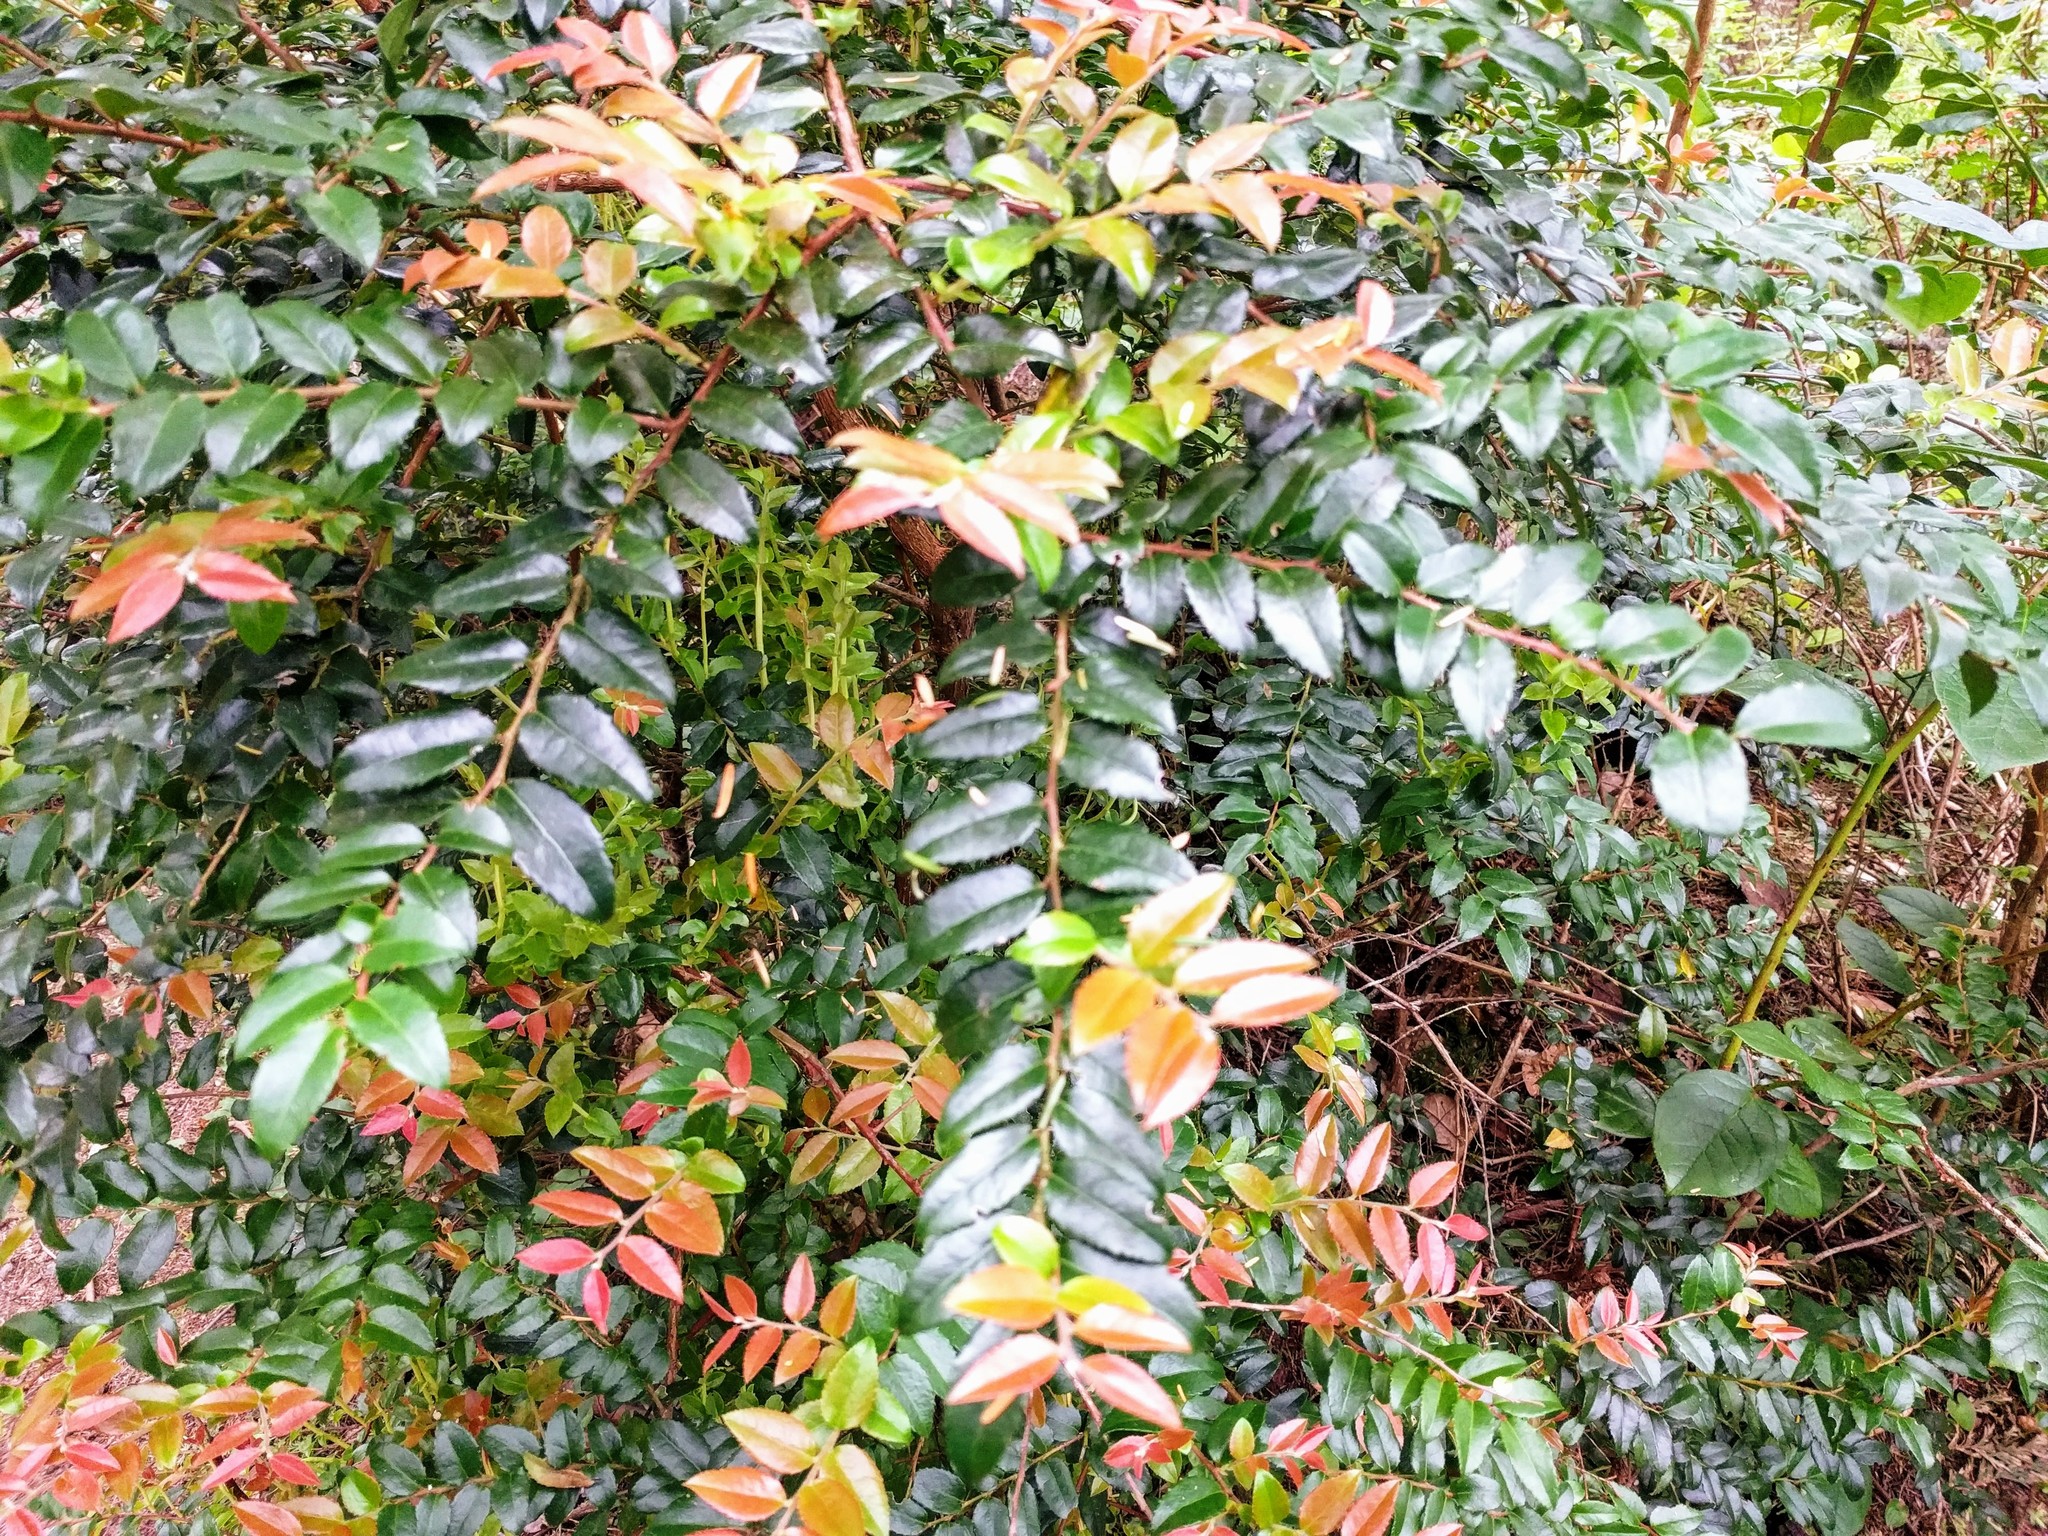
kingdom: Plantae
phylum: Tracheophyta
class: Magnoliopsida
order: Ericales
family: Ericaceae
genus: Vaccinium
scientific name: Vaccinium ovatum
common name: California-huckleberry
